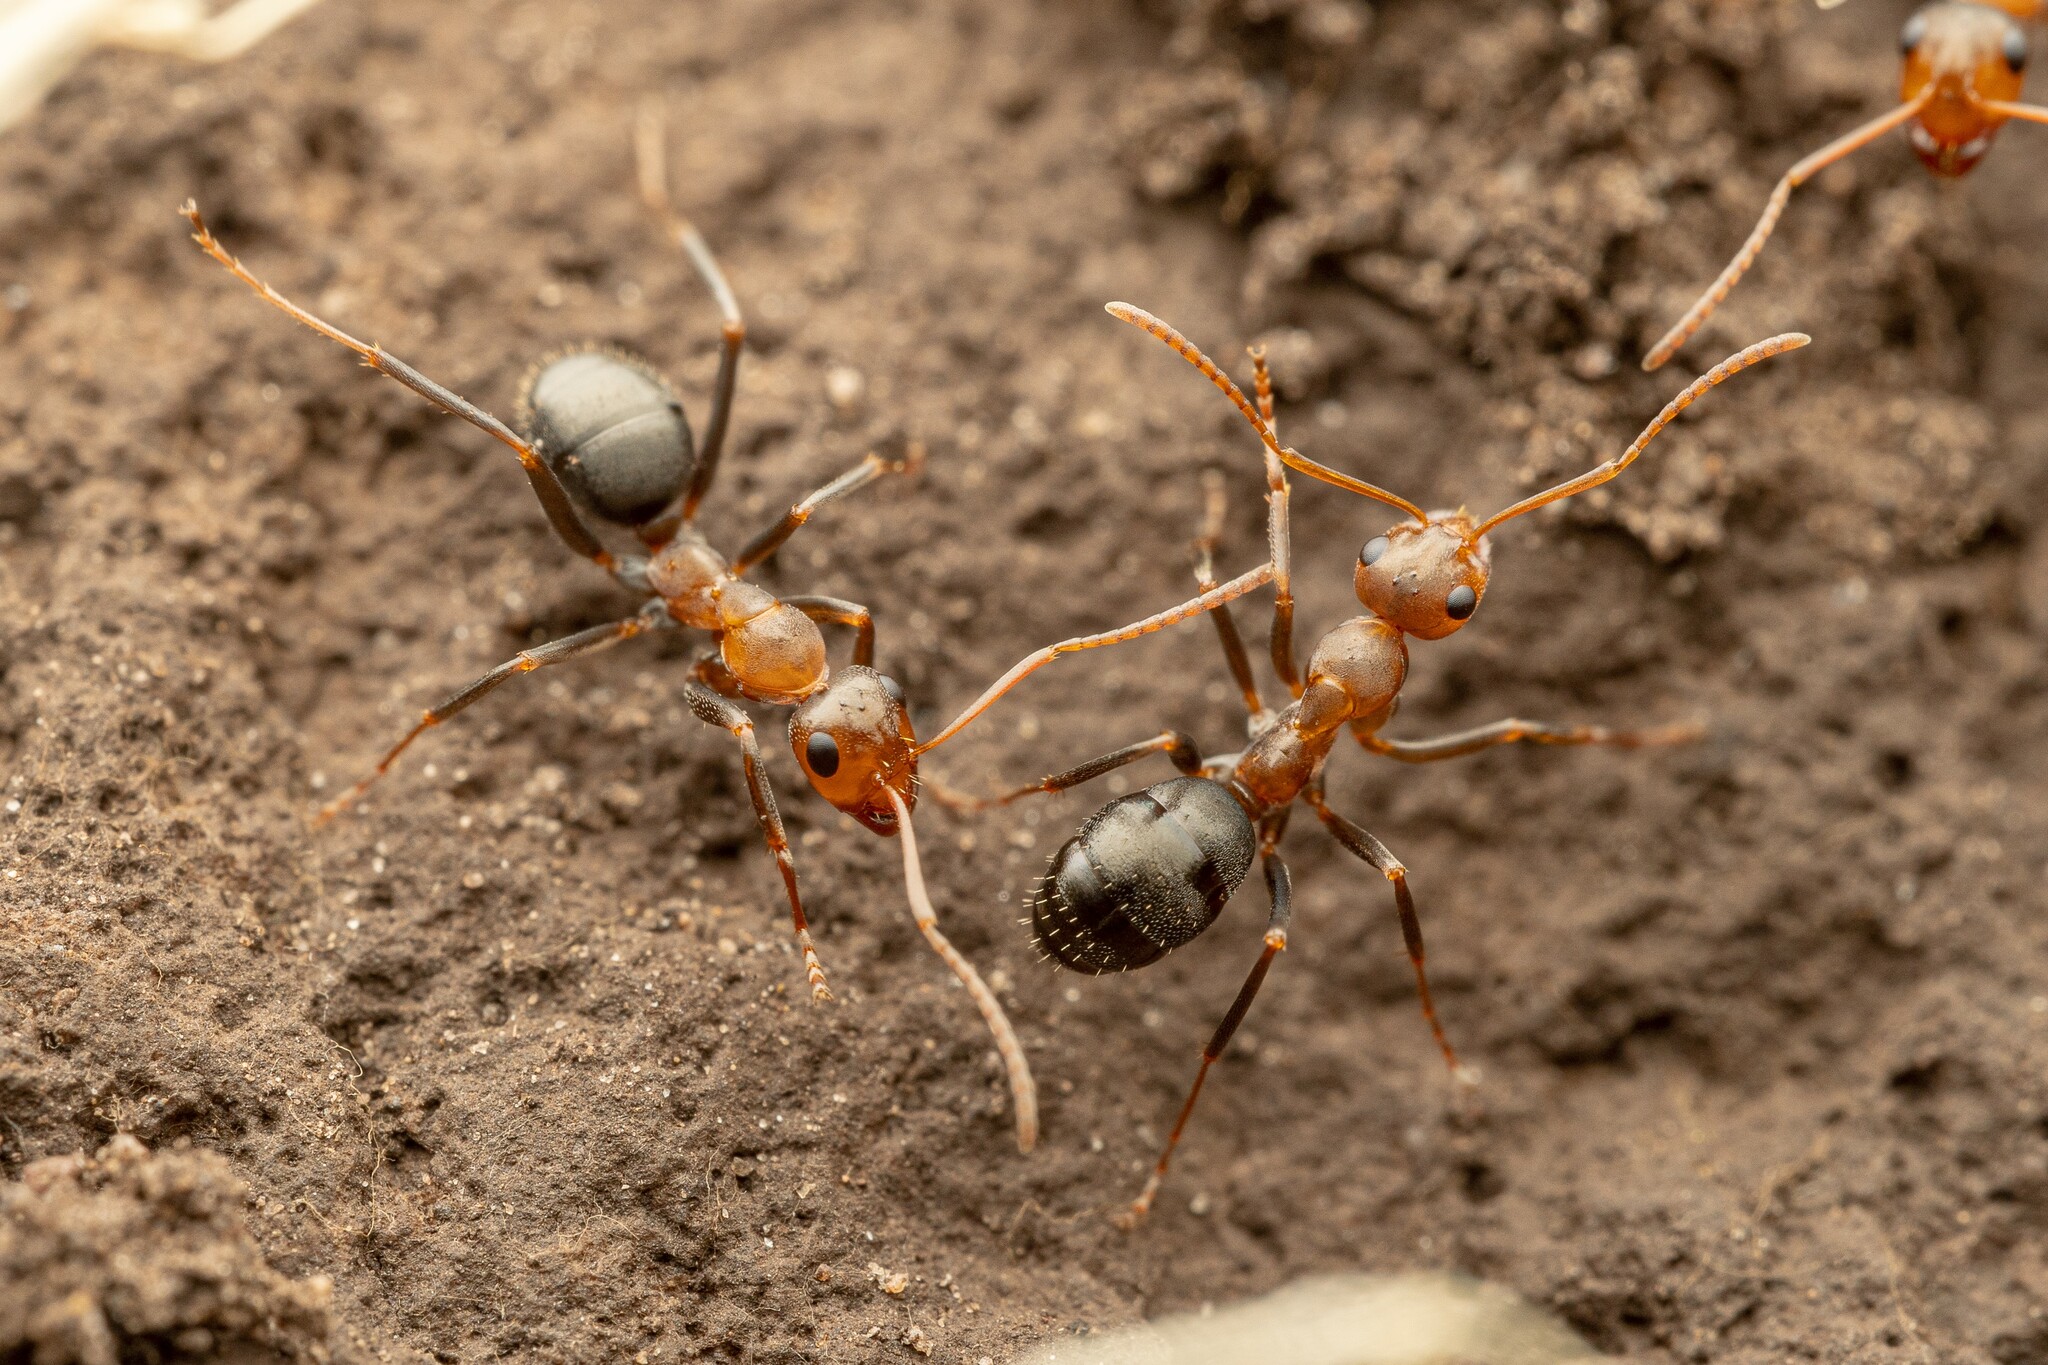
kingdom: Animalia
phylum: Arthropoda
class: Insecta
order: Hymenoptera
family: Formicidae
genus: Formica
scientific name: Formica foreliana
